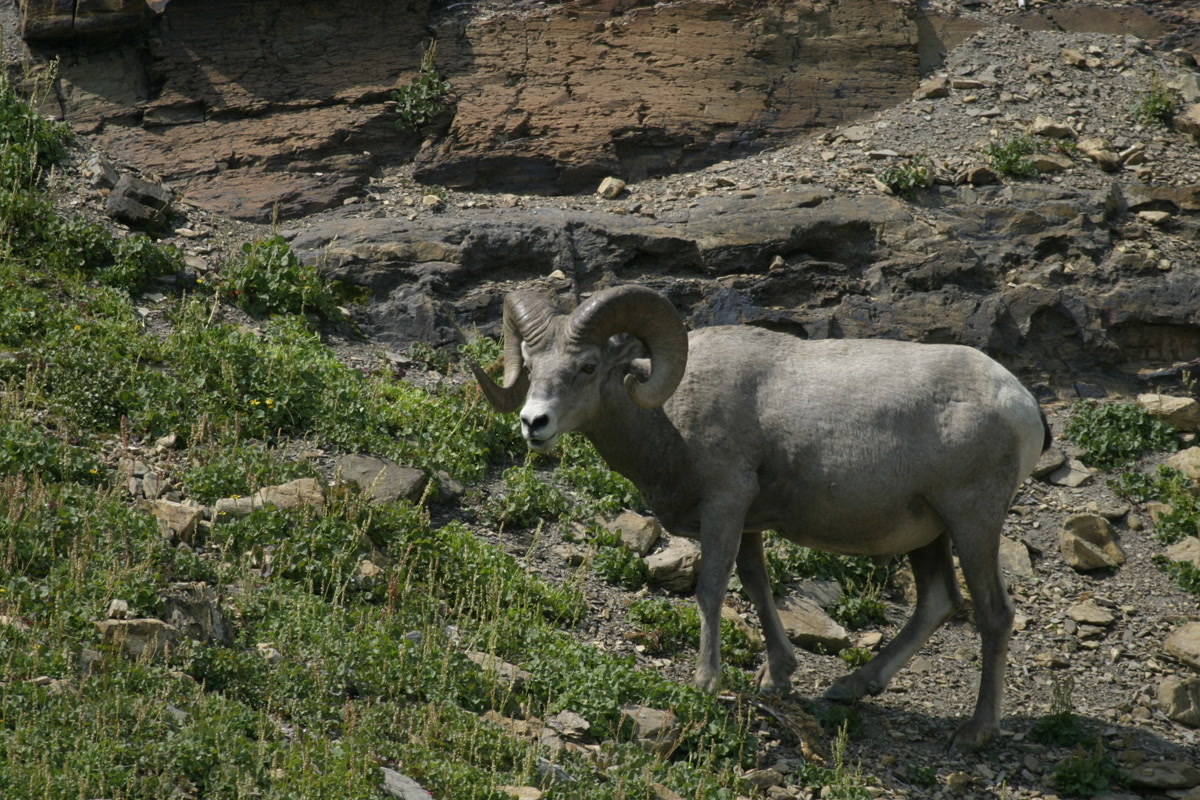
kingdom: Animalia
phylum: Chordata
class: Mammalia
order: Artiodactyla
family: Bovidae
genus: Ovis
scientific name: Ovis canadensis
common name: Bighorn sheep
